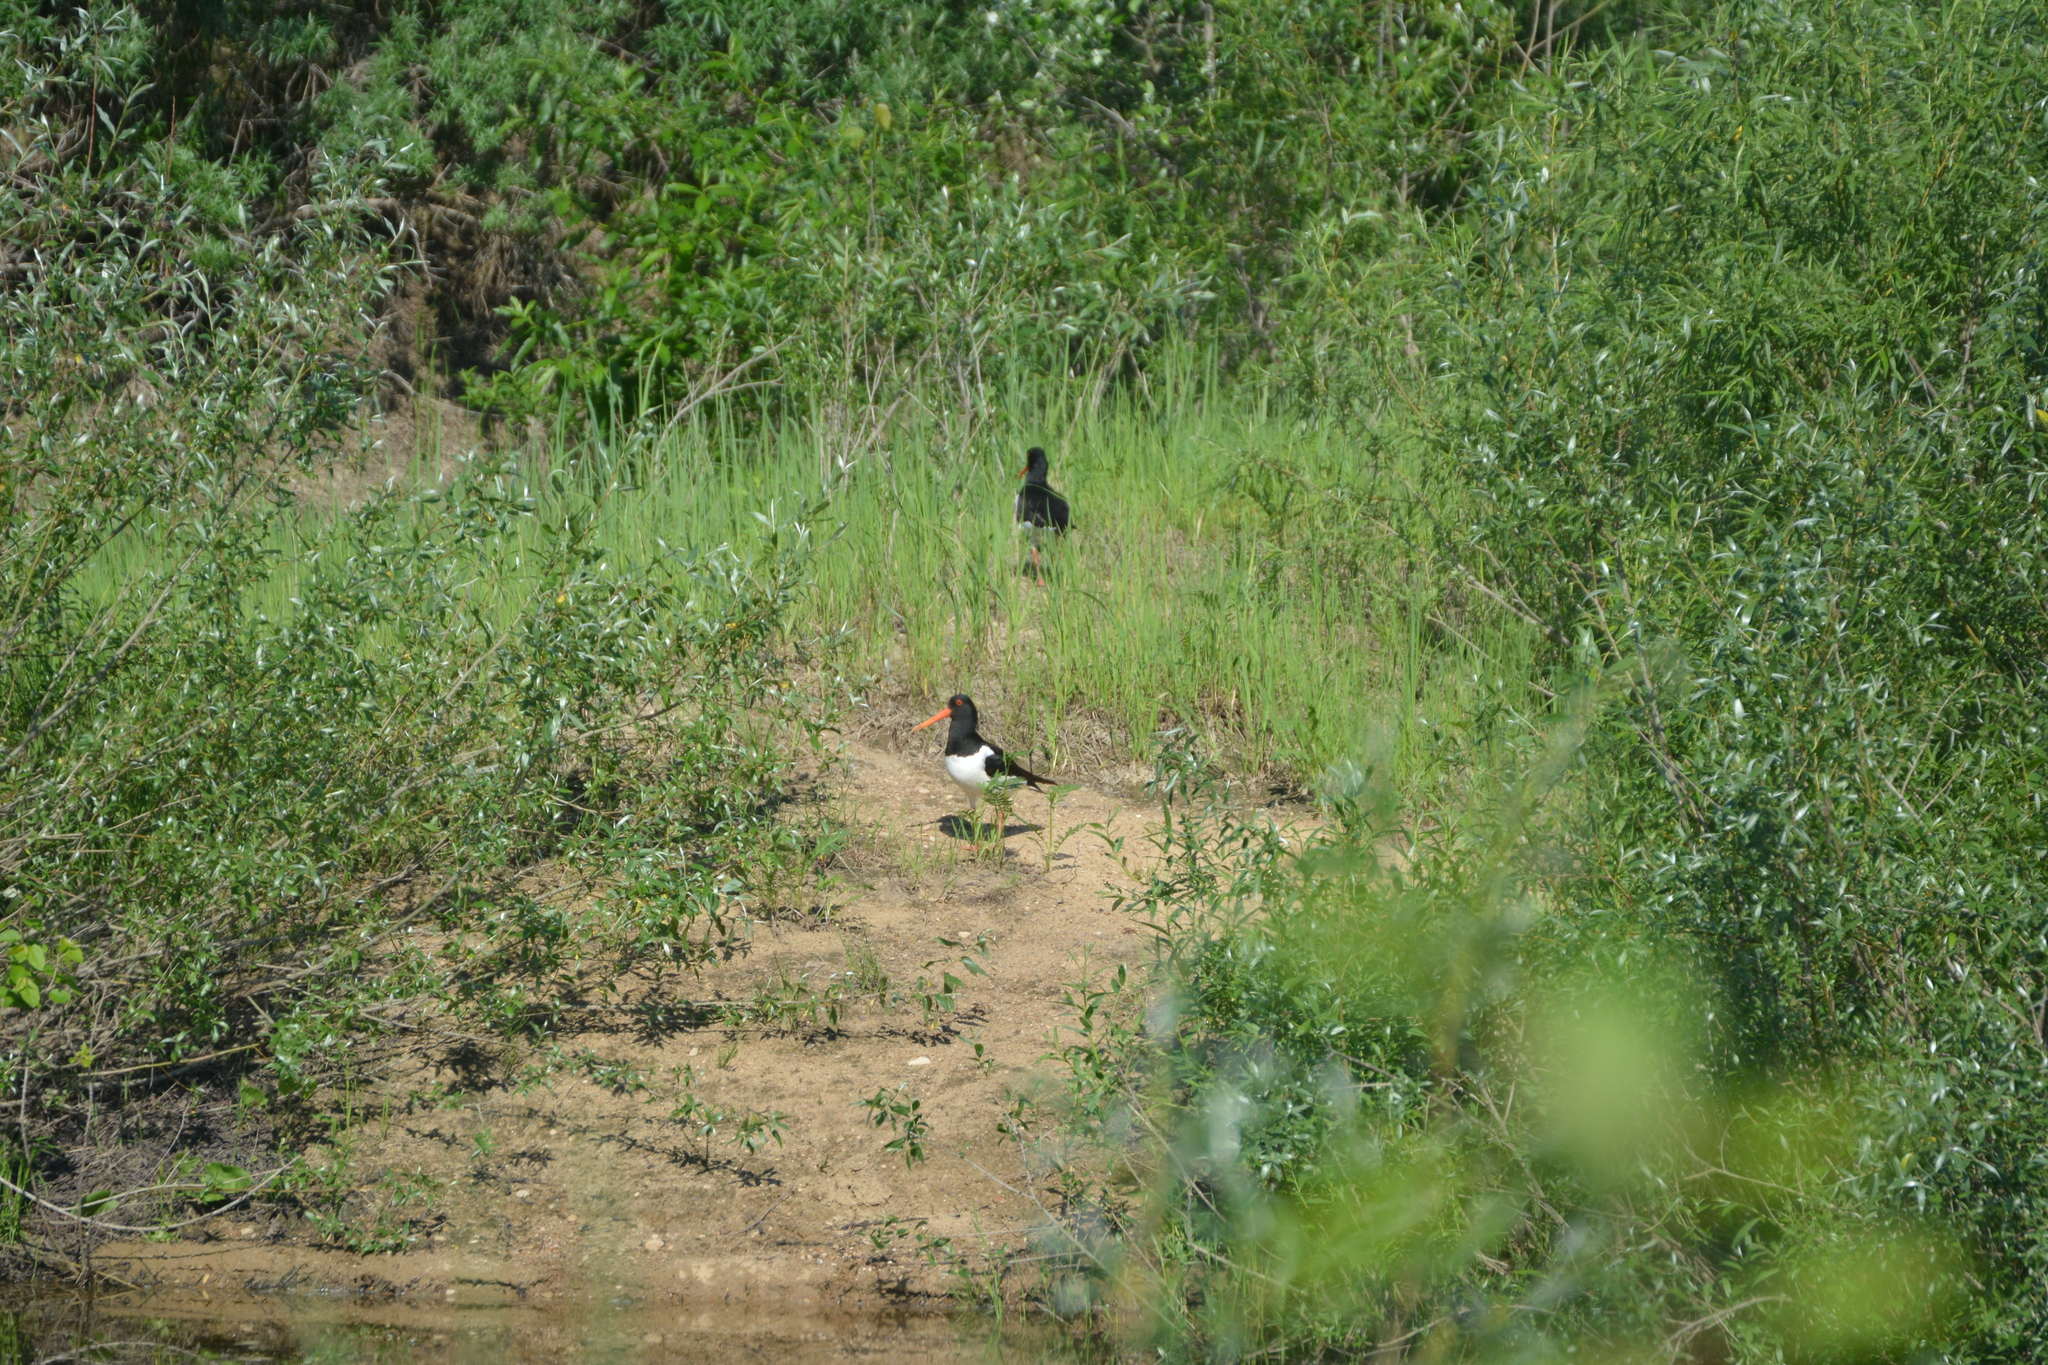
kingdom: Animalia
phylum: Chordata
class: Aves
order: Charadriiformes
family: Haematopodidae
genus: Haematopus
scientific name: Haematopus ostralegus
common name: Eurasian oystercatcher
